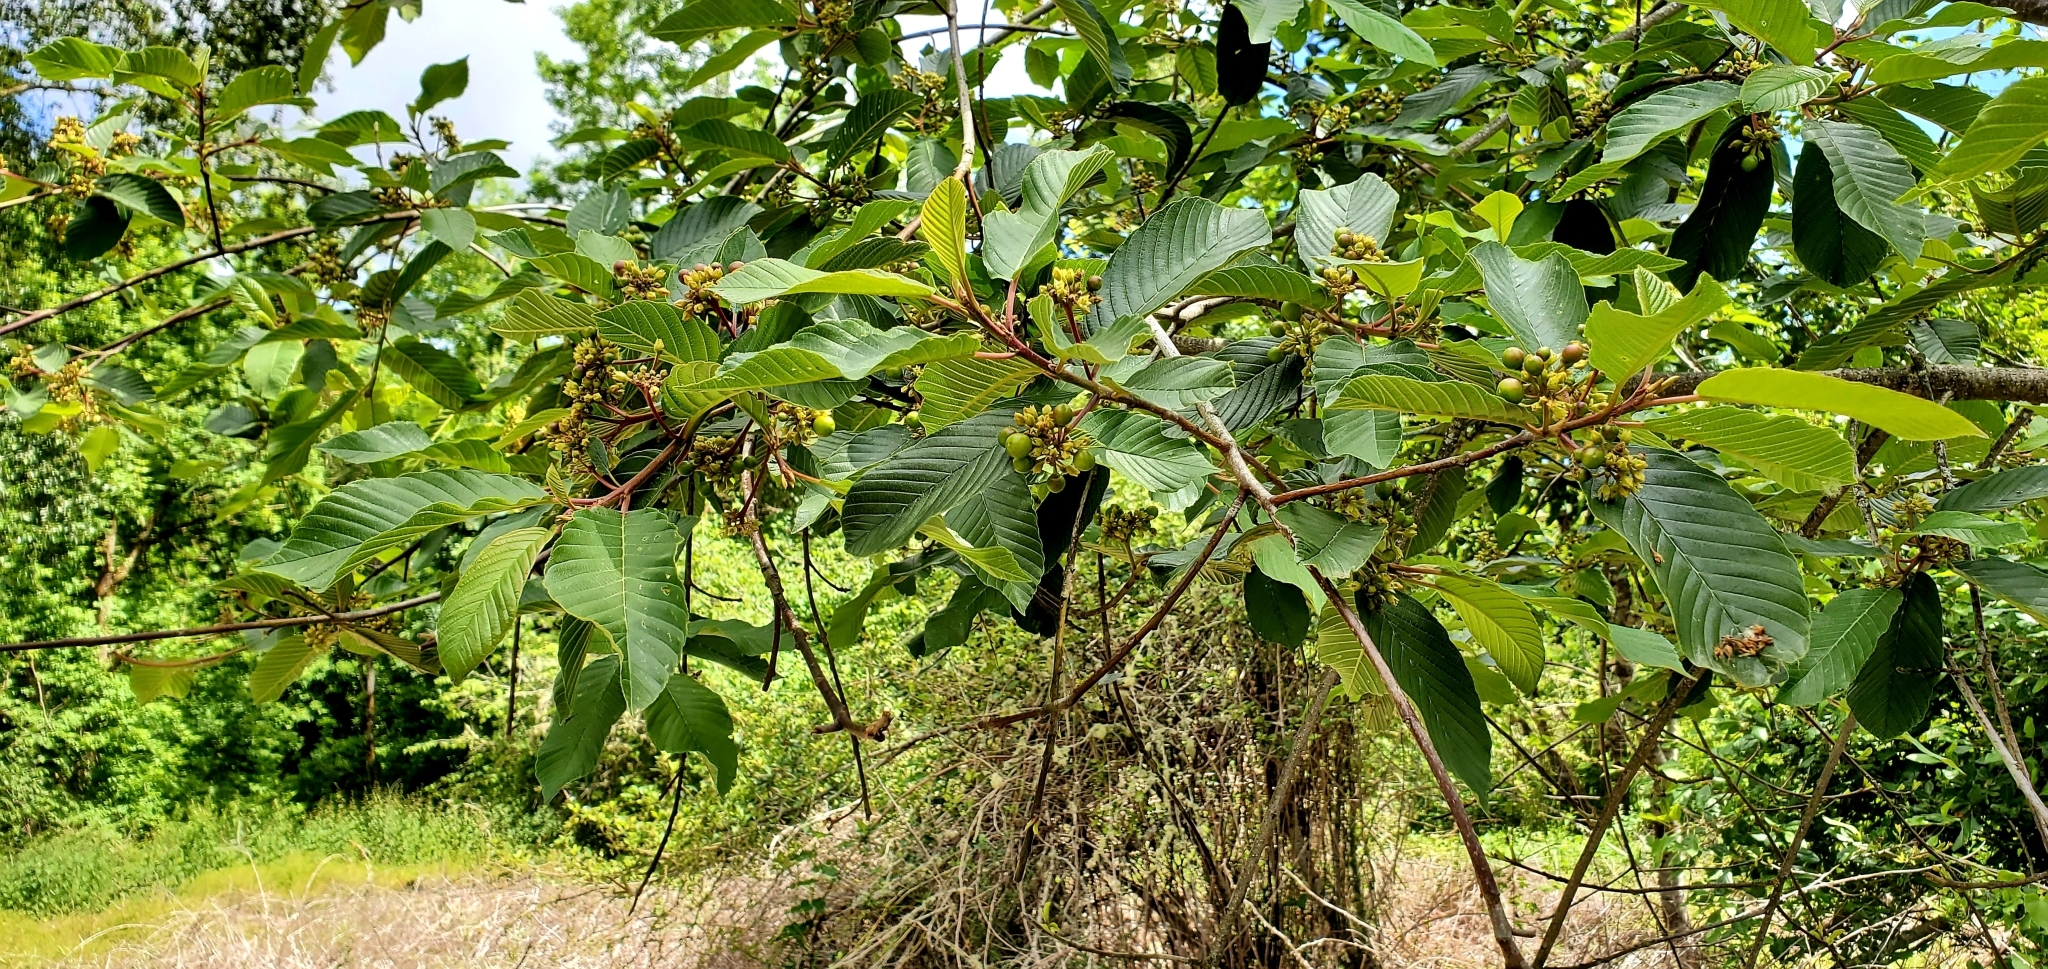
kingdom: Plantae
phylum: Tracheophyta
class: Magnoliopsida
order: Rosales
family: Rhamnaceae
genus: Frangula
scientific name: Frangula purshiana
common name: Cascara buckthorn
